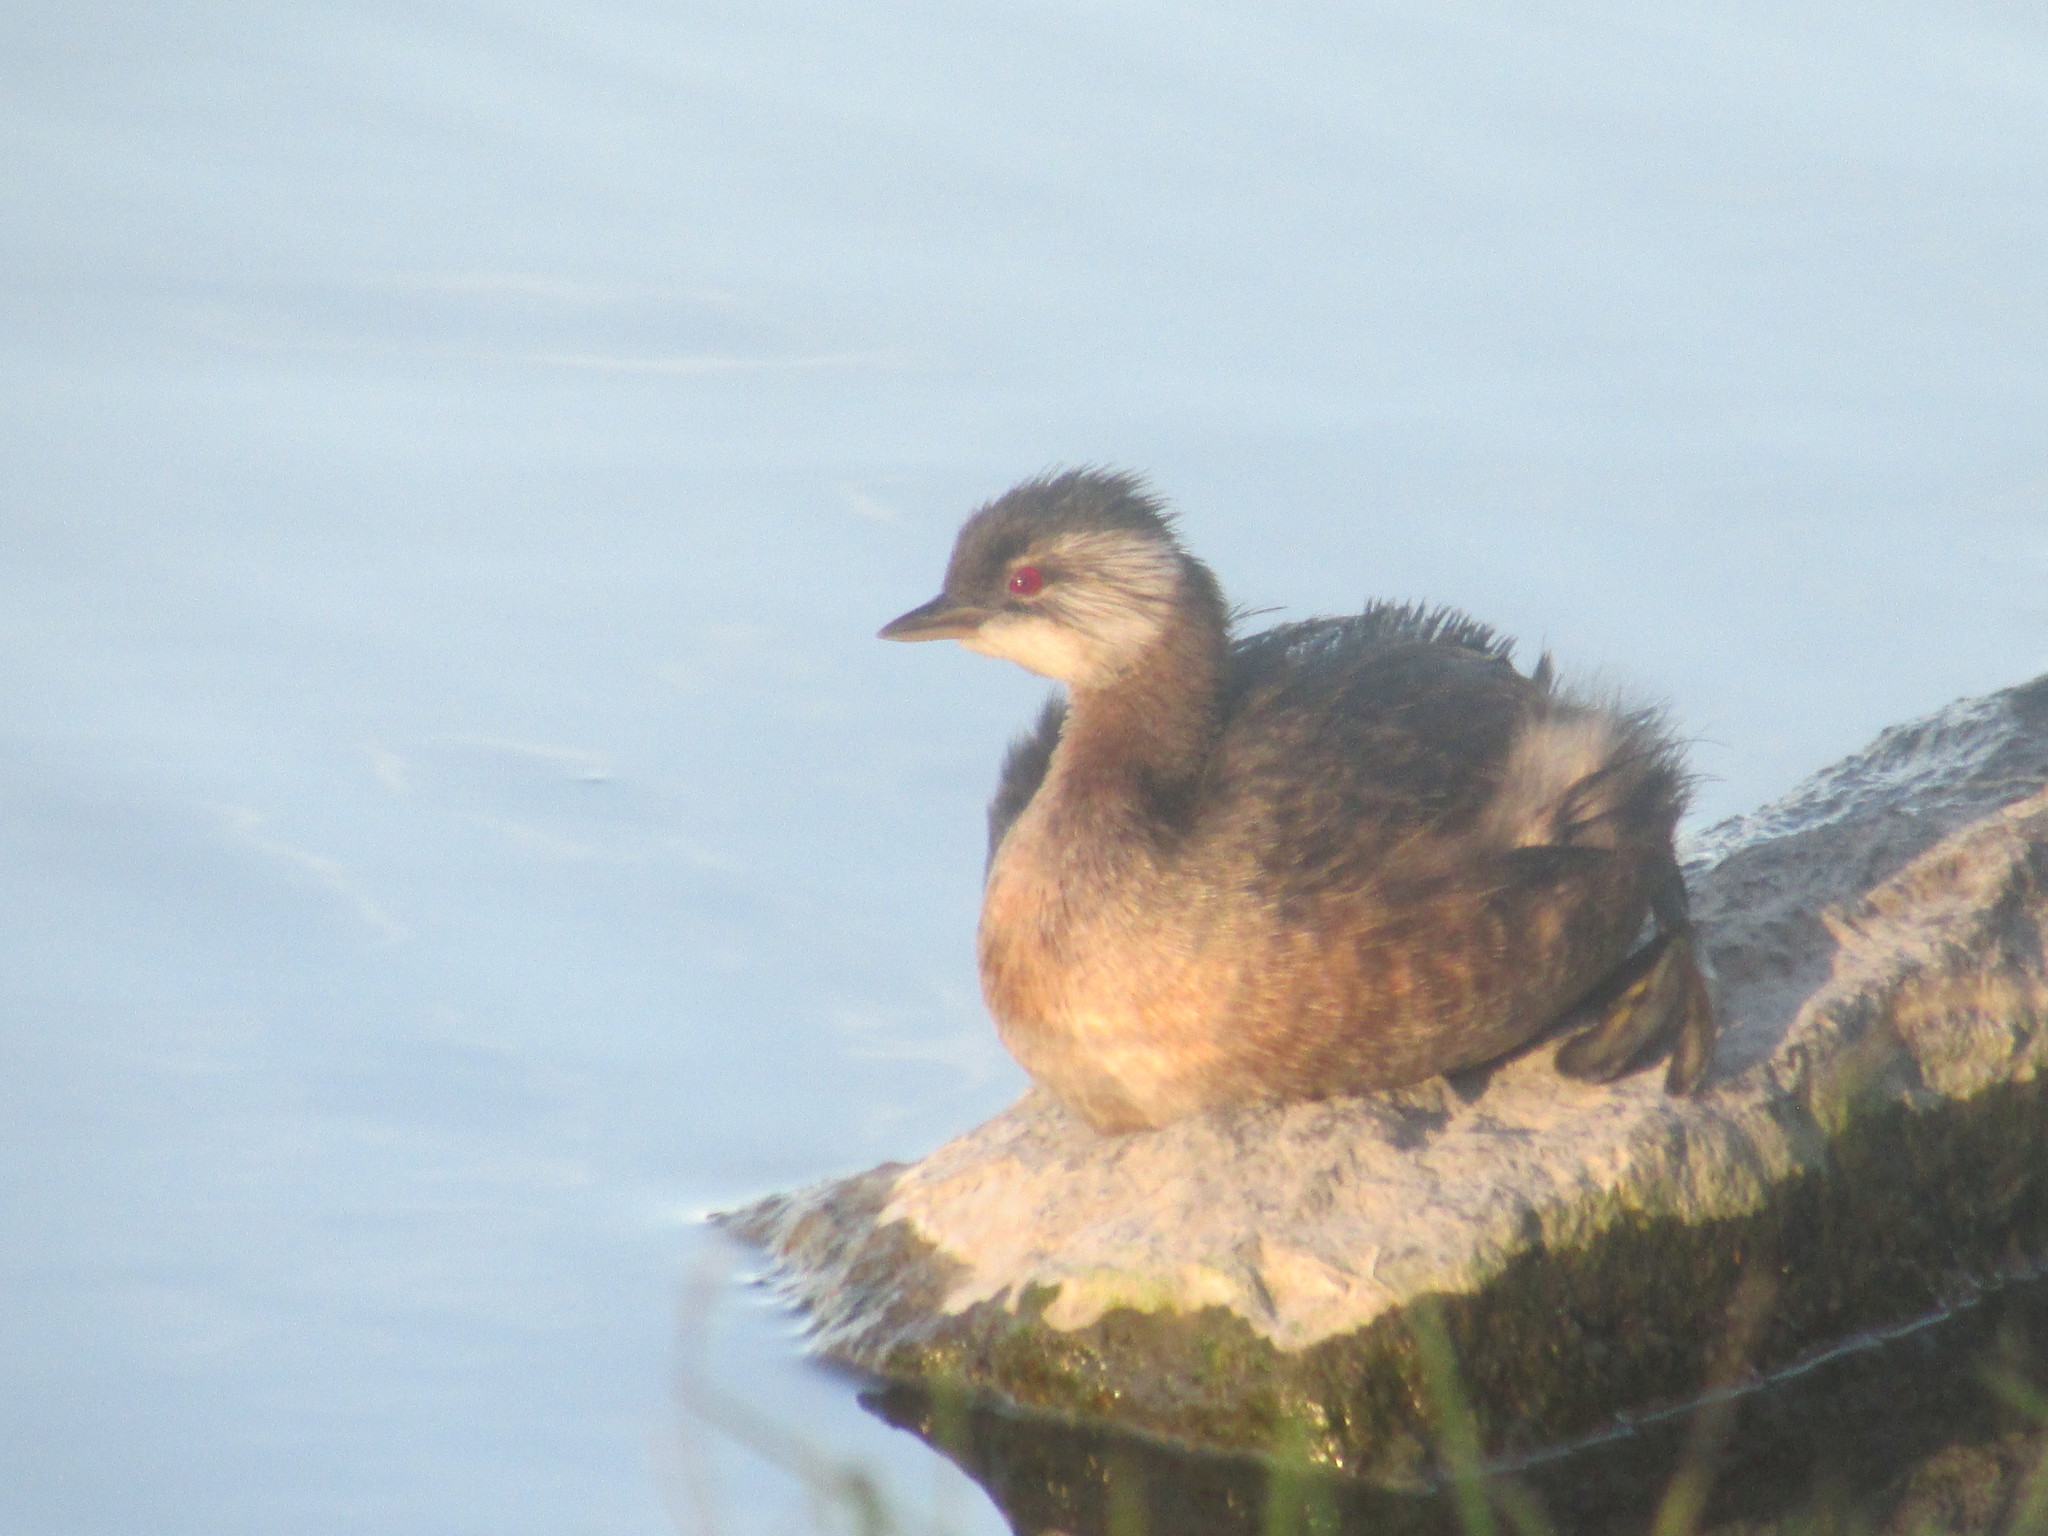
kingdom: Animalia
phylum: Chordata
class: Aves
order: Podicipediformes
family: Podicipedidae
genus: Rollandia
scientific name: Rollandia rolland
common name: White-tufted grebe
